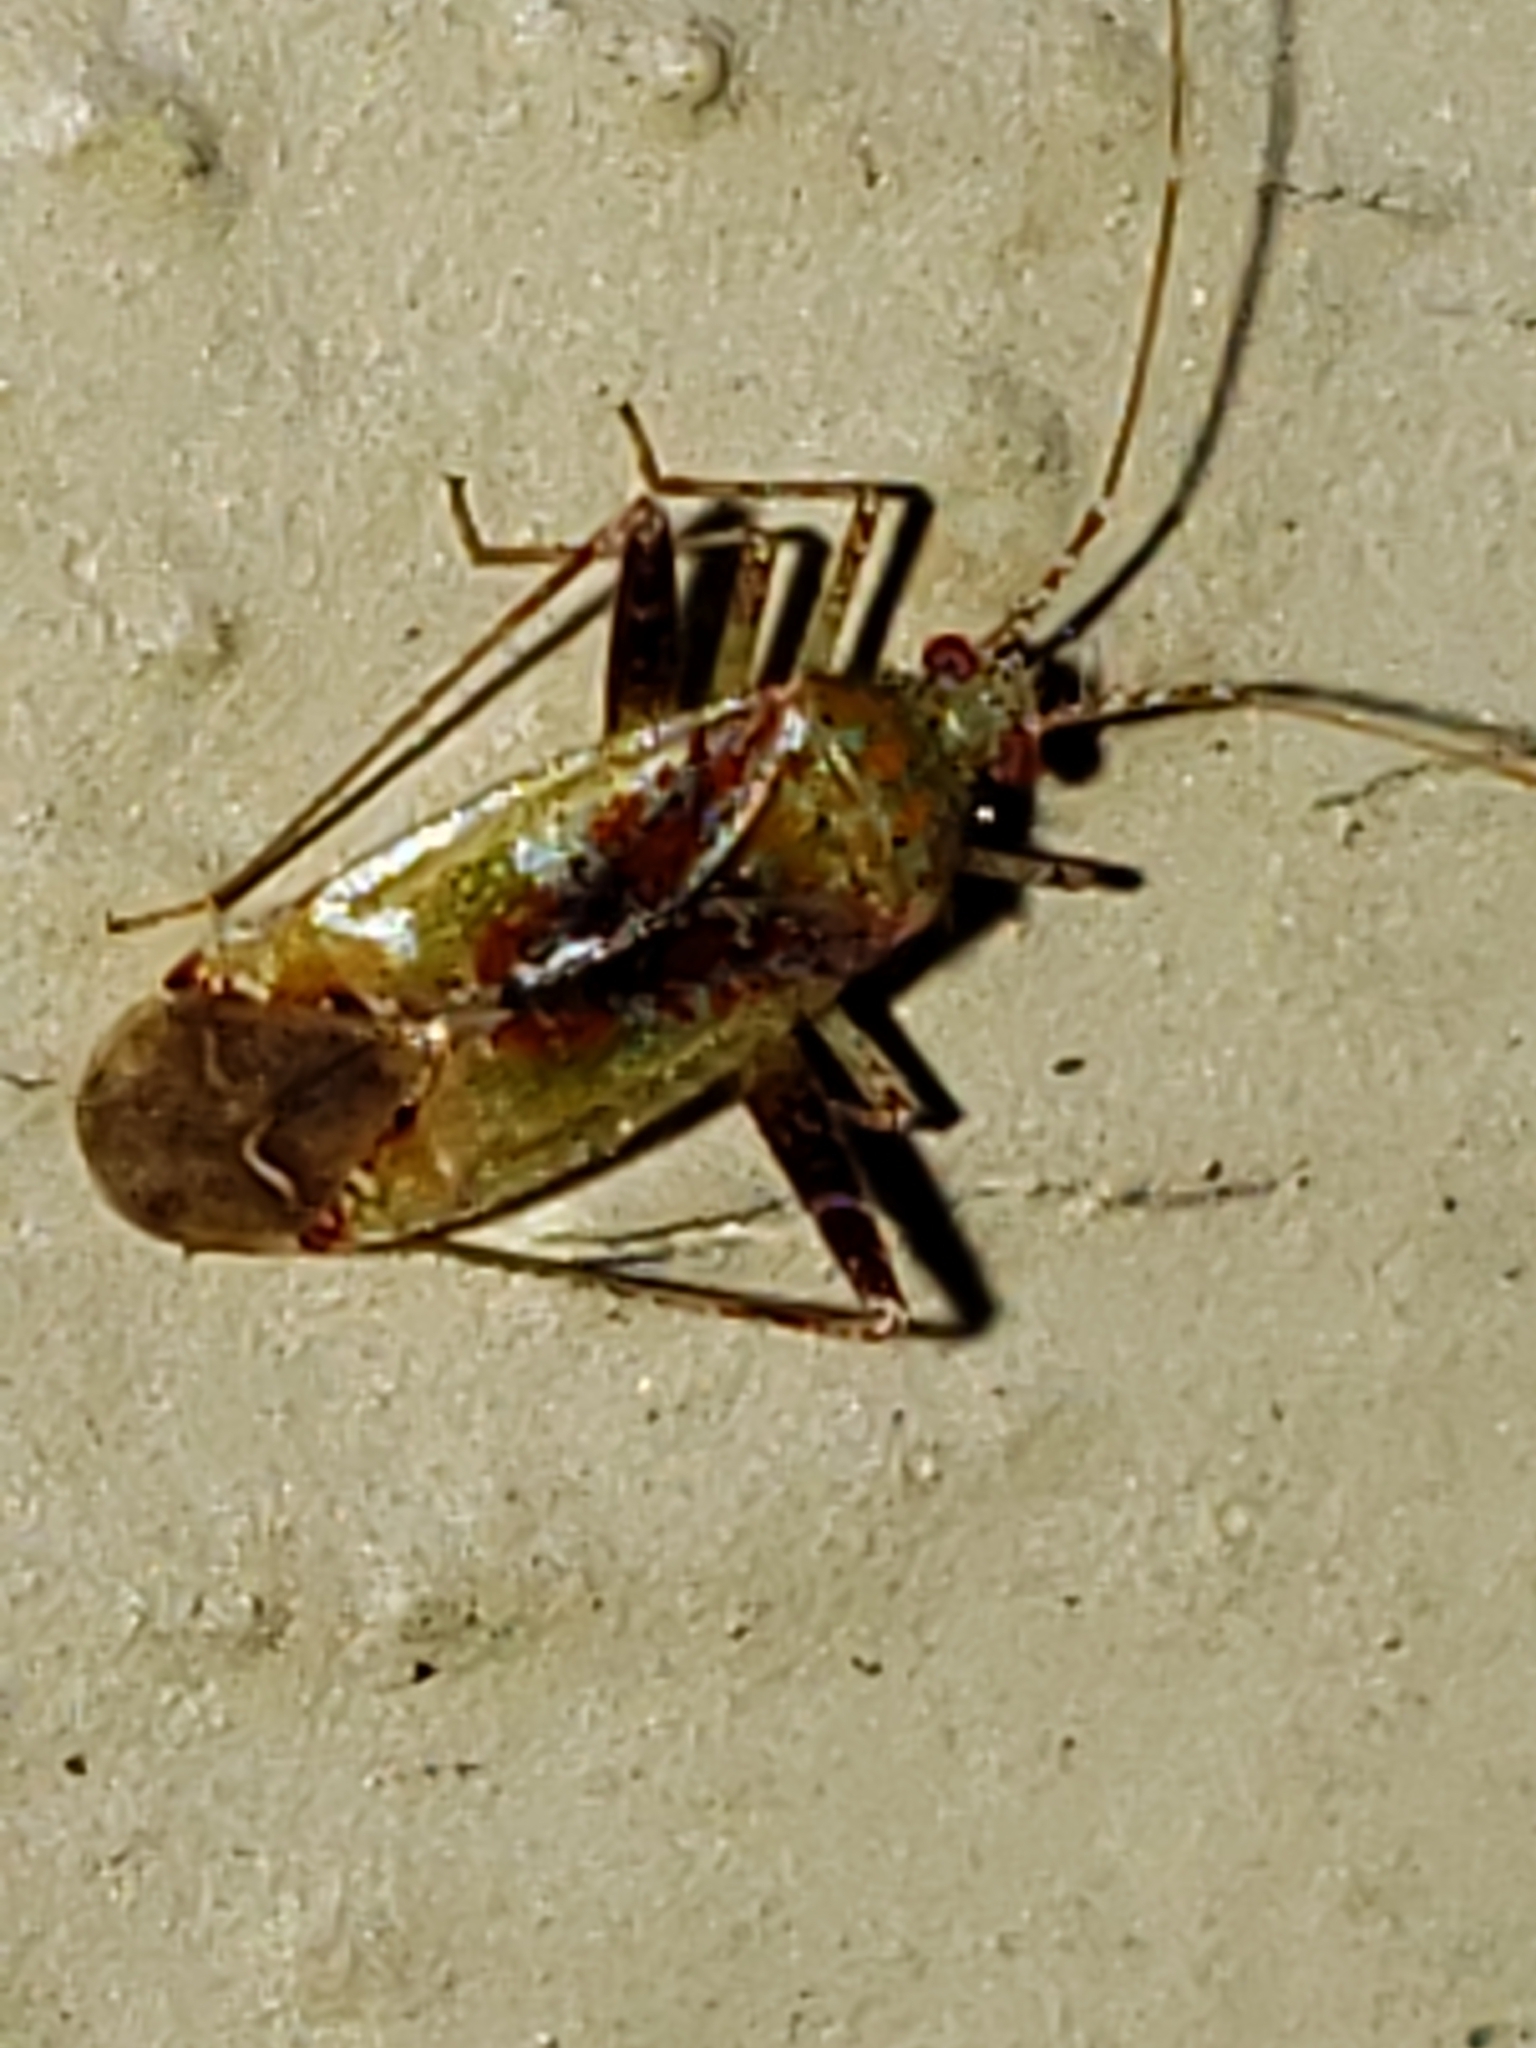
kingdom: Animalia
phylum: Arthropoda
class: Insecta
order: Hemiptera
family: Miridae
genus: Phytocoris
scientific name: Phytocoris tibialis
